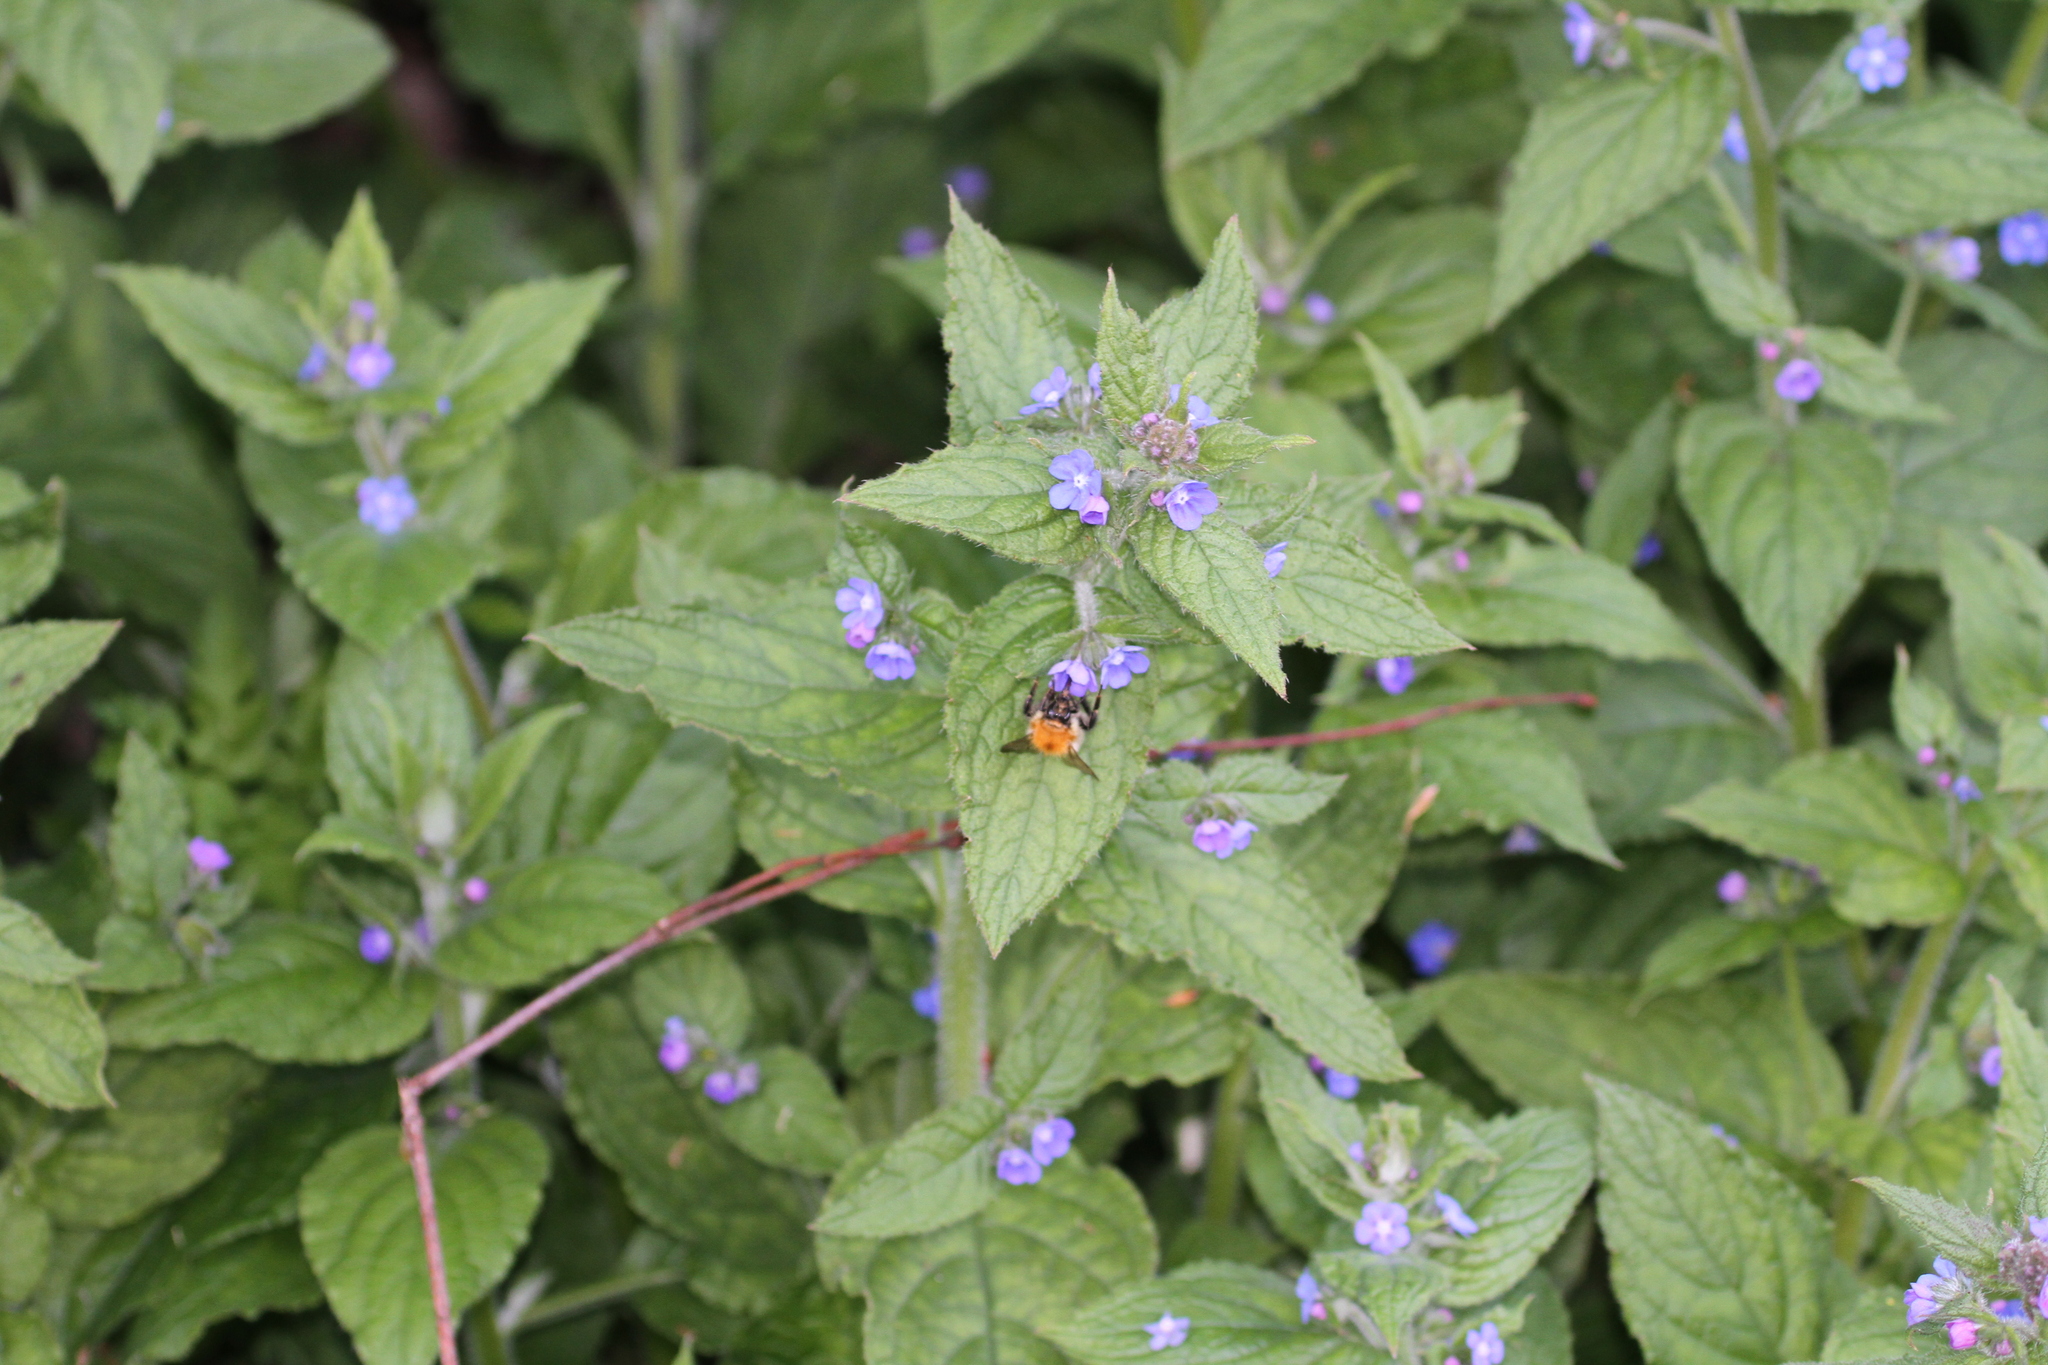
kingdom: Plantae
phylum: Tracheophyta
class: Magnoliopsida
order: Boraginales
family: Boraginaceae
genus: Pentaglottis
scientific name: Pentaglottis sempervirens
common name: Green alkanet
